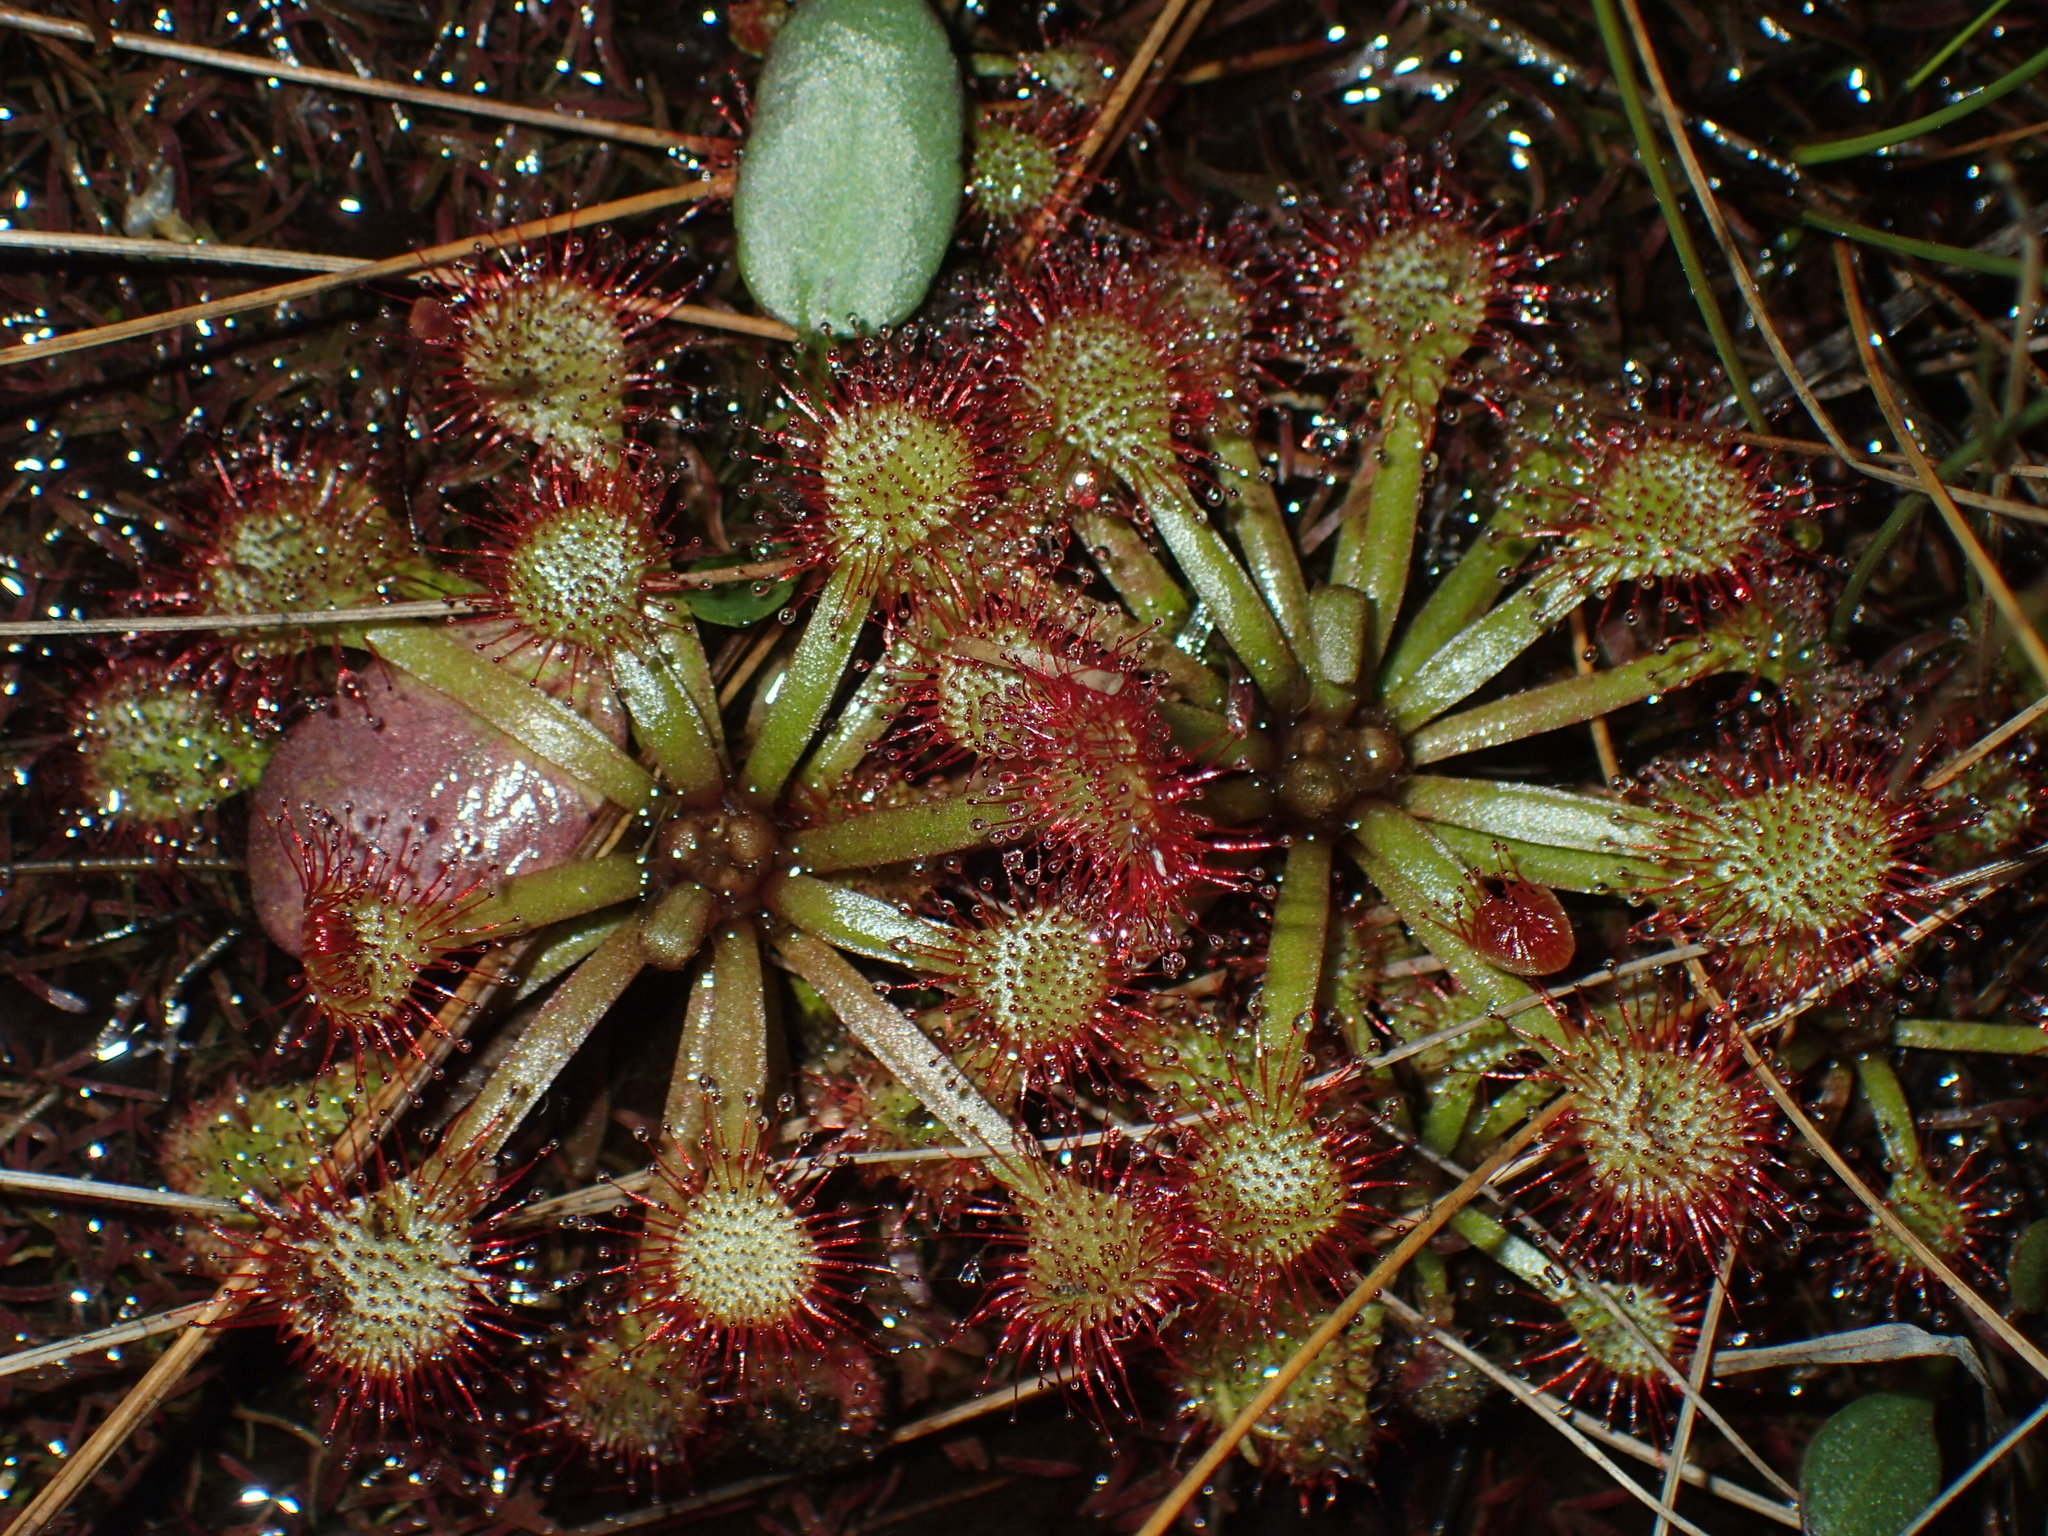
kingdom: Plantae
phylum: Tracheophyta
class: Magnoliopsida
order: Caryophyllales
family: Droseraceae
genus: Drosera
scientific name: Drosera capillaris
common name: Pink sundew
